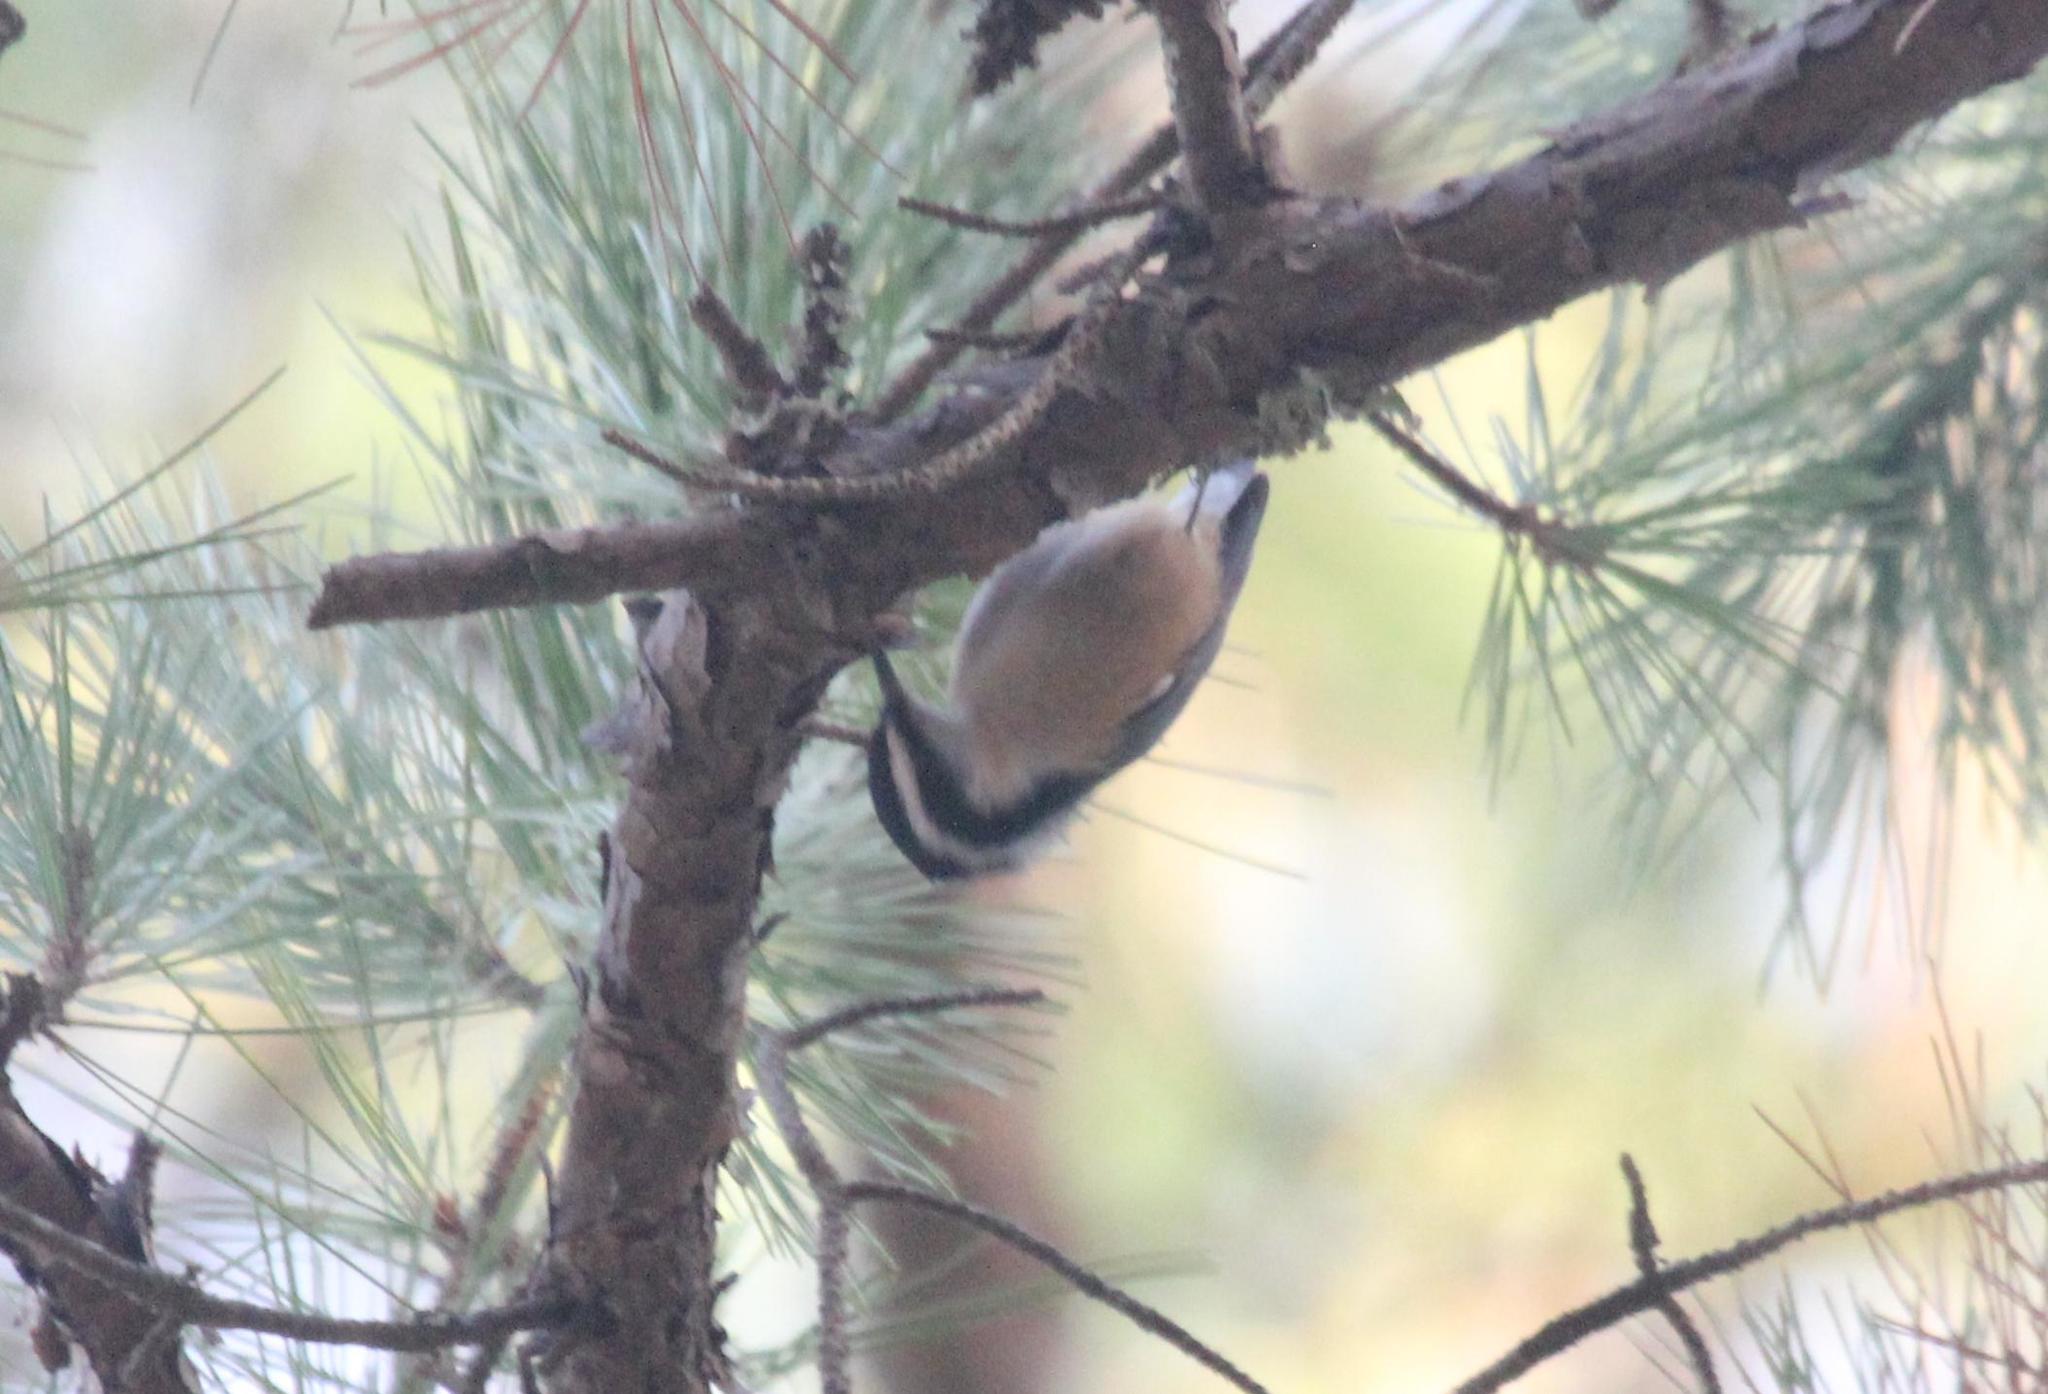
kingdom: Animalia
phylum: Chordata
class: Aves
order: Passeriformes
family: Sittidae
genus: Sitta
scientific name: Sitta canadensis
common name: Red-breasted nuthatch
